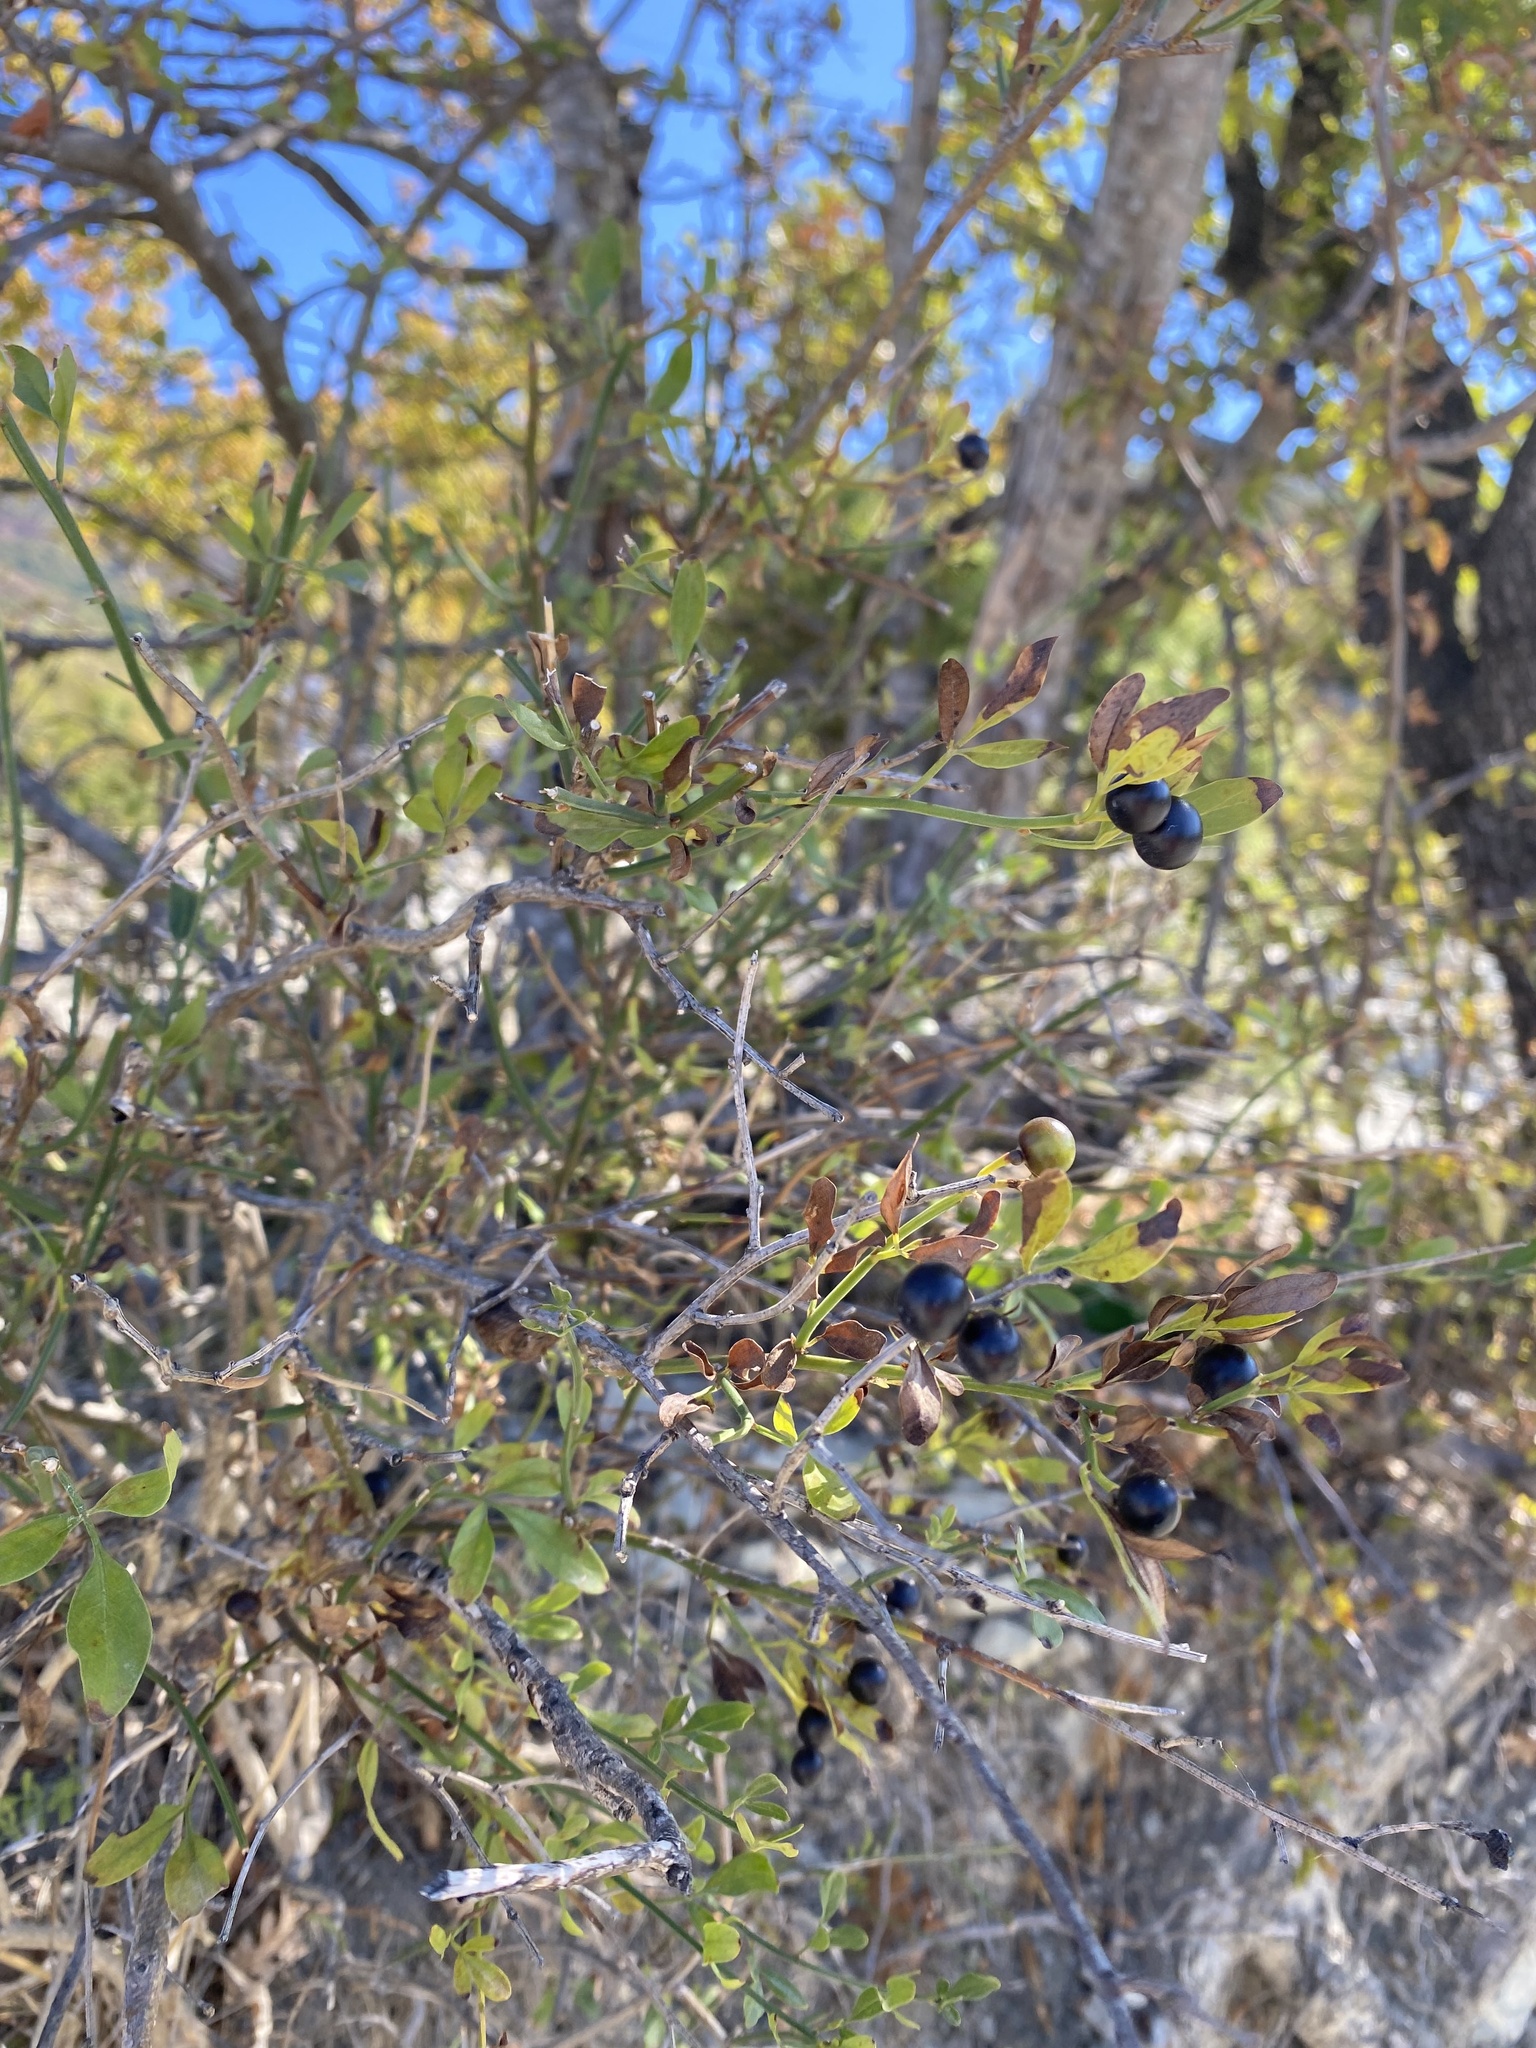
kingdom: Plantae
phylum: Tracheophyta
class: Magnoliopsida
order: Lamiales
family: Oleaceae
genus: Chrysojasminum
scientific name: Chrysojasminum fruticans
